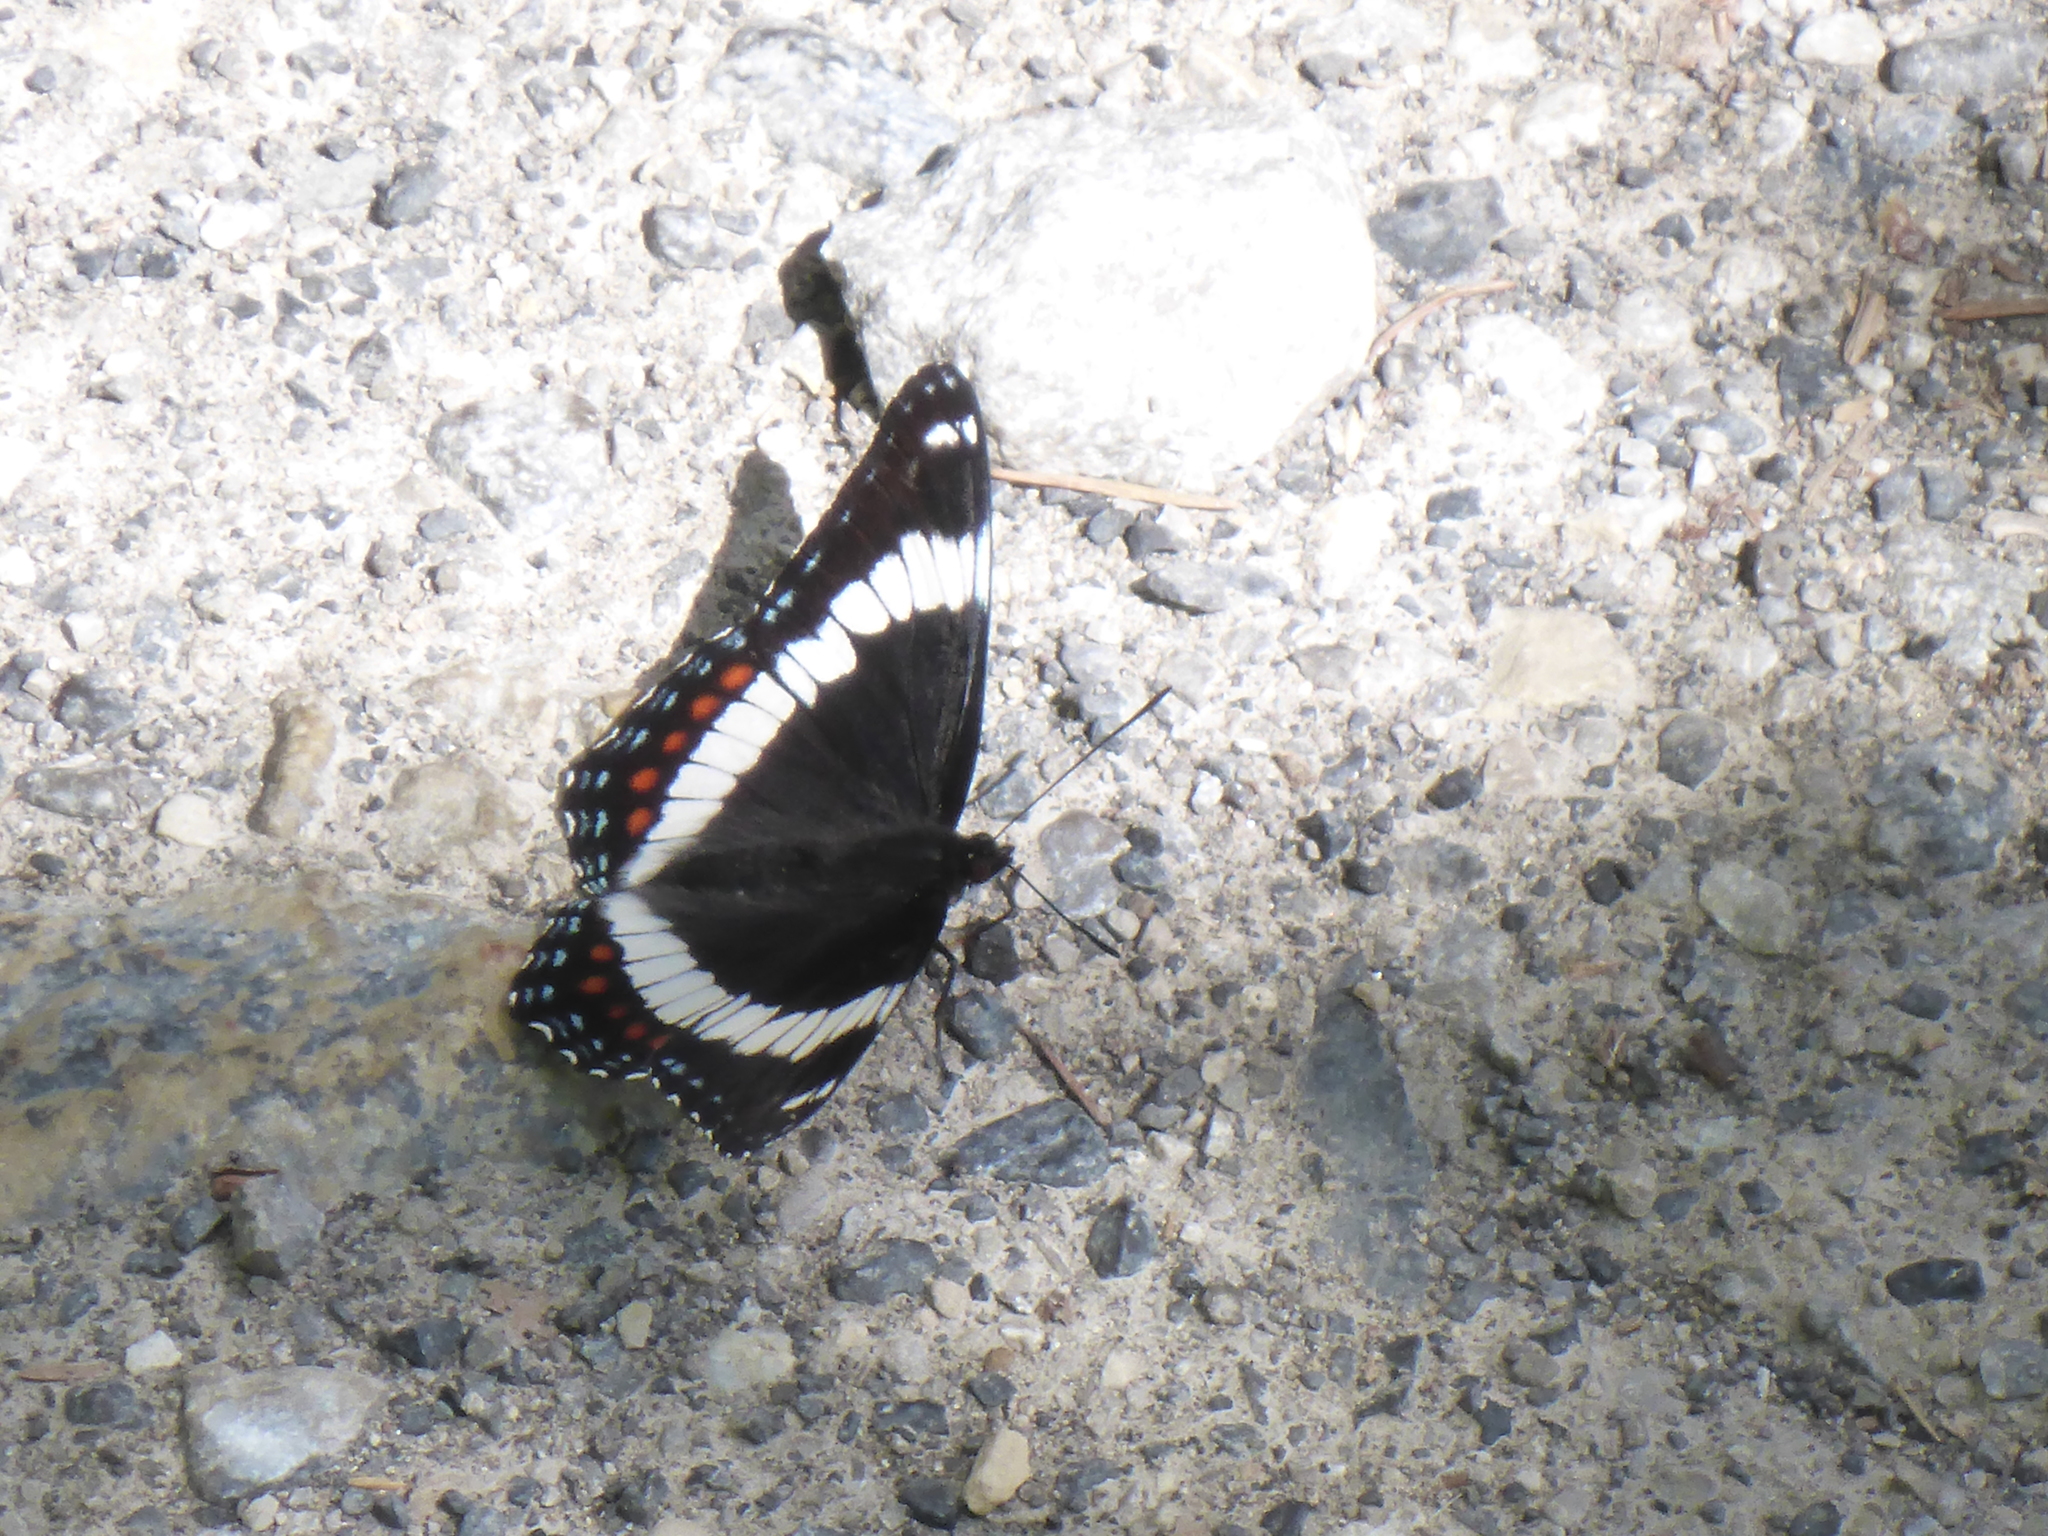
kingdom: Animalia
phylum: Arthropoda
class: Insecta
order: Lepidoptera
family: Nymphalidae
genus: Limenitis
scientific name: Limenitis arthemis
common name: Red-spotted admiral
